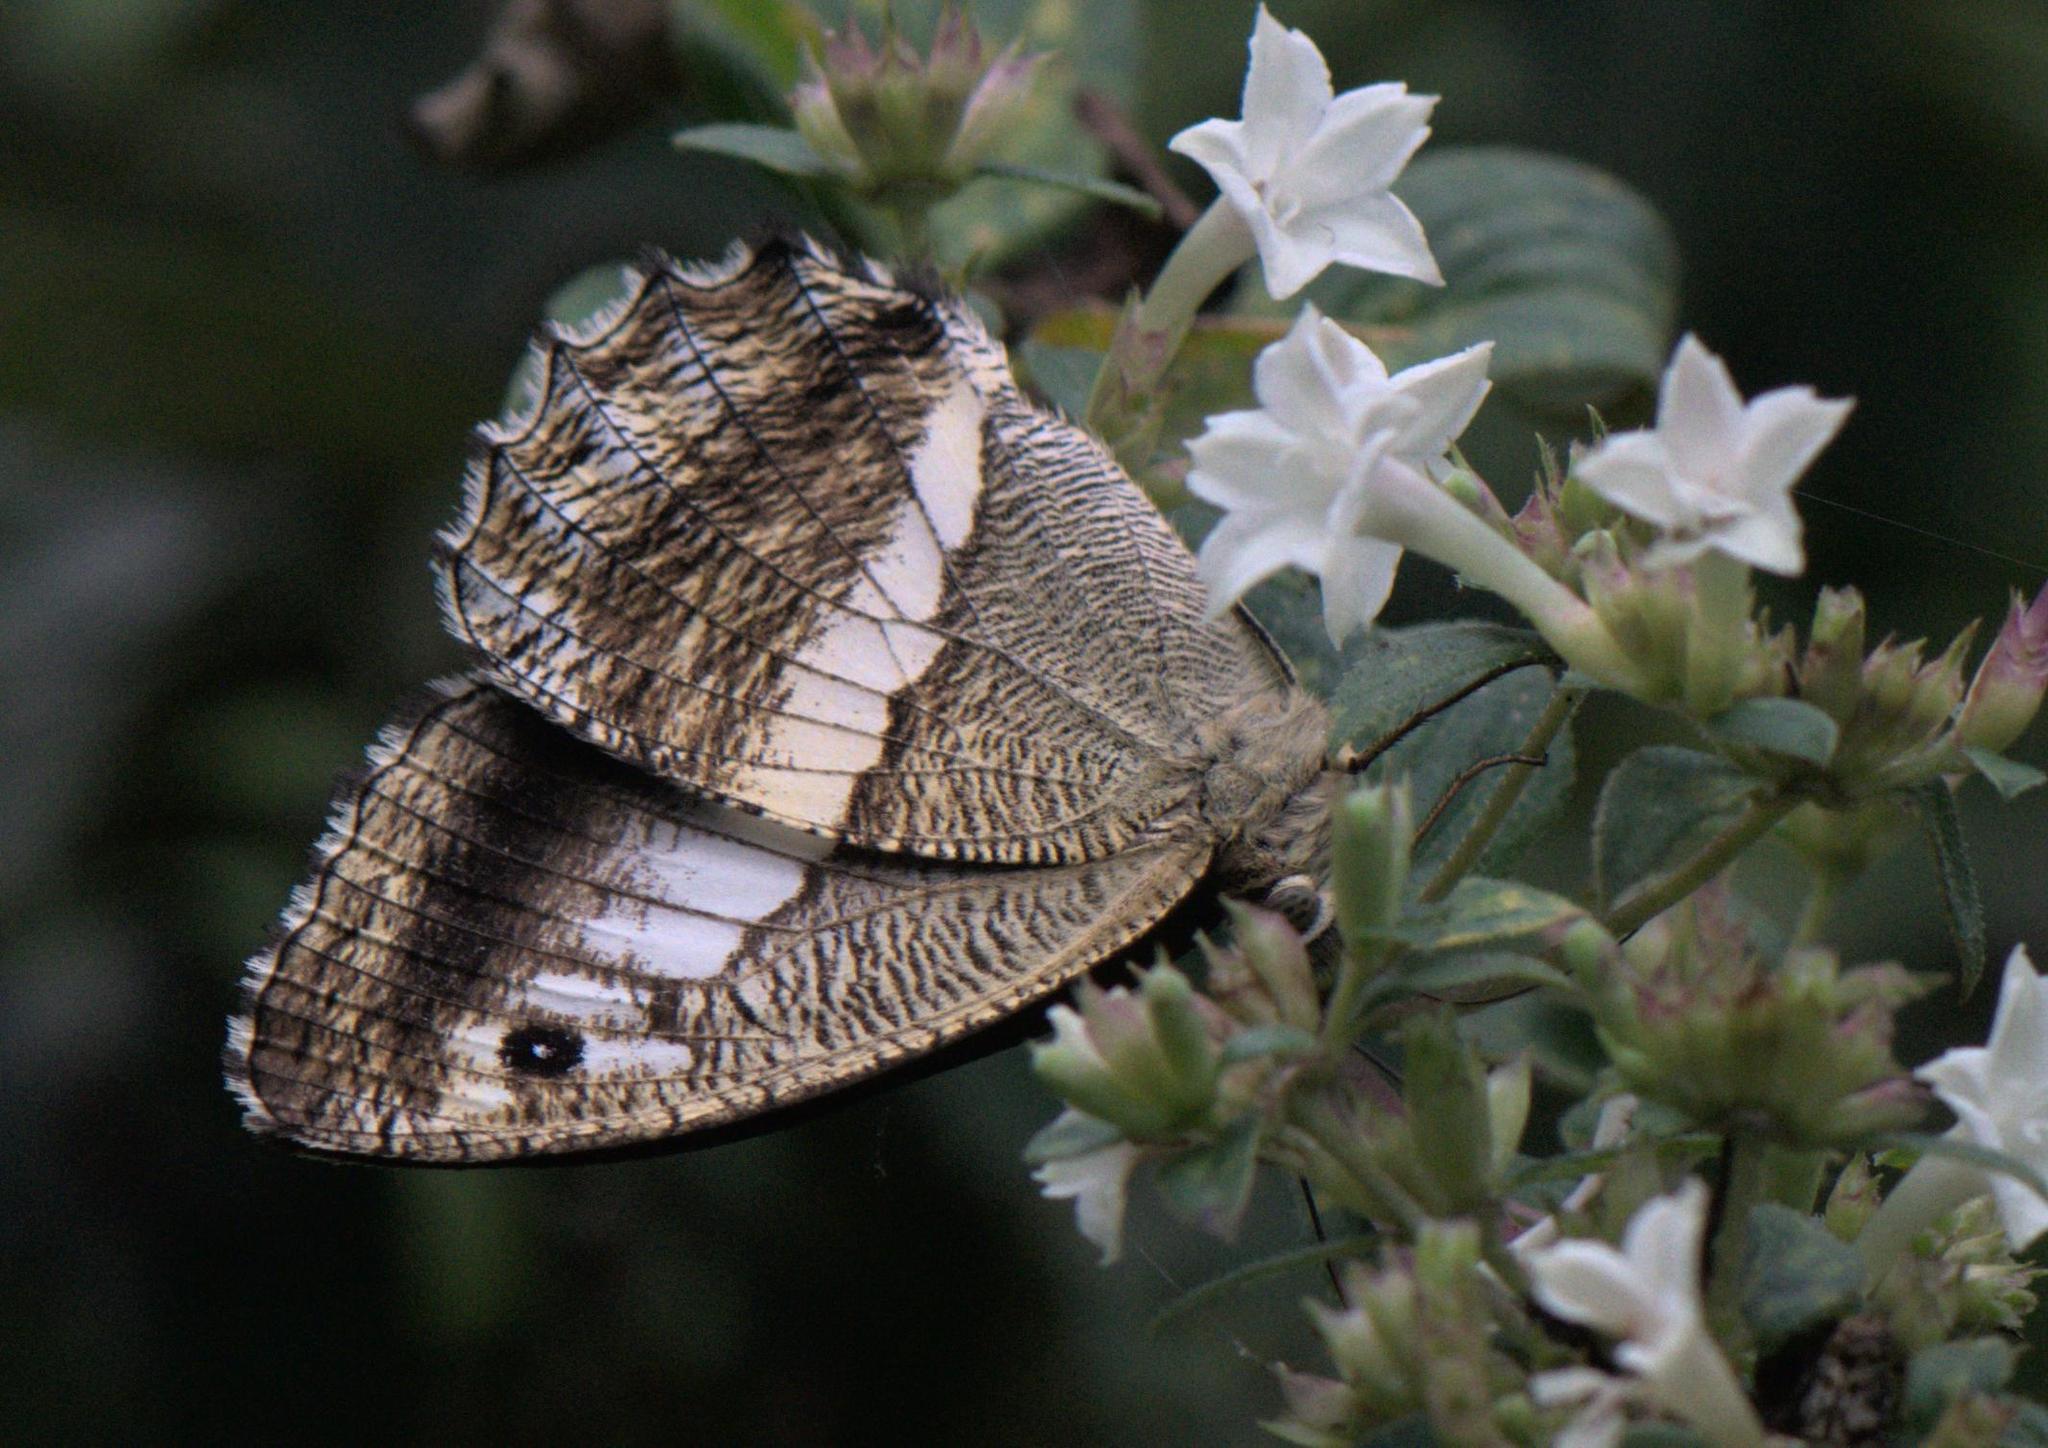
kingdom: Animalia
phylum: Arthropoda
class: Insecta
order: Lepidoptera
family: Nymphalidae
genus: Satyrus
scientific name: Satyrus
